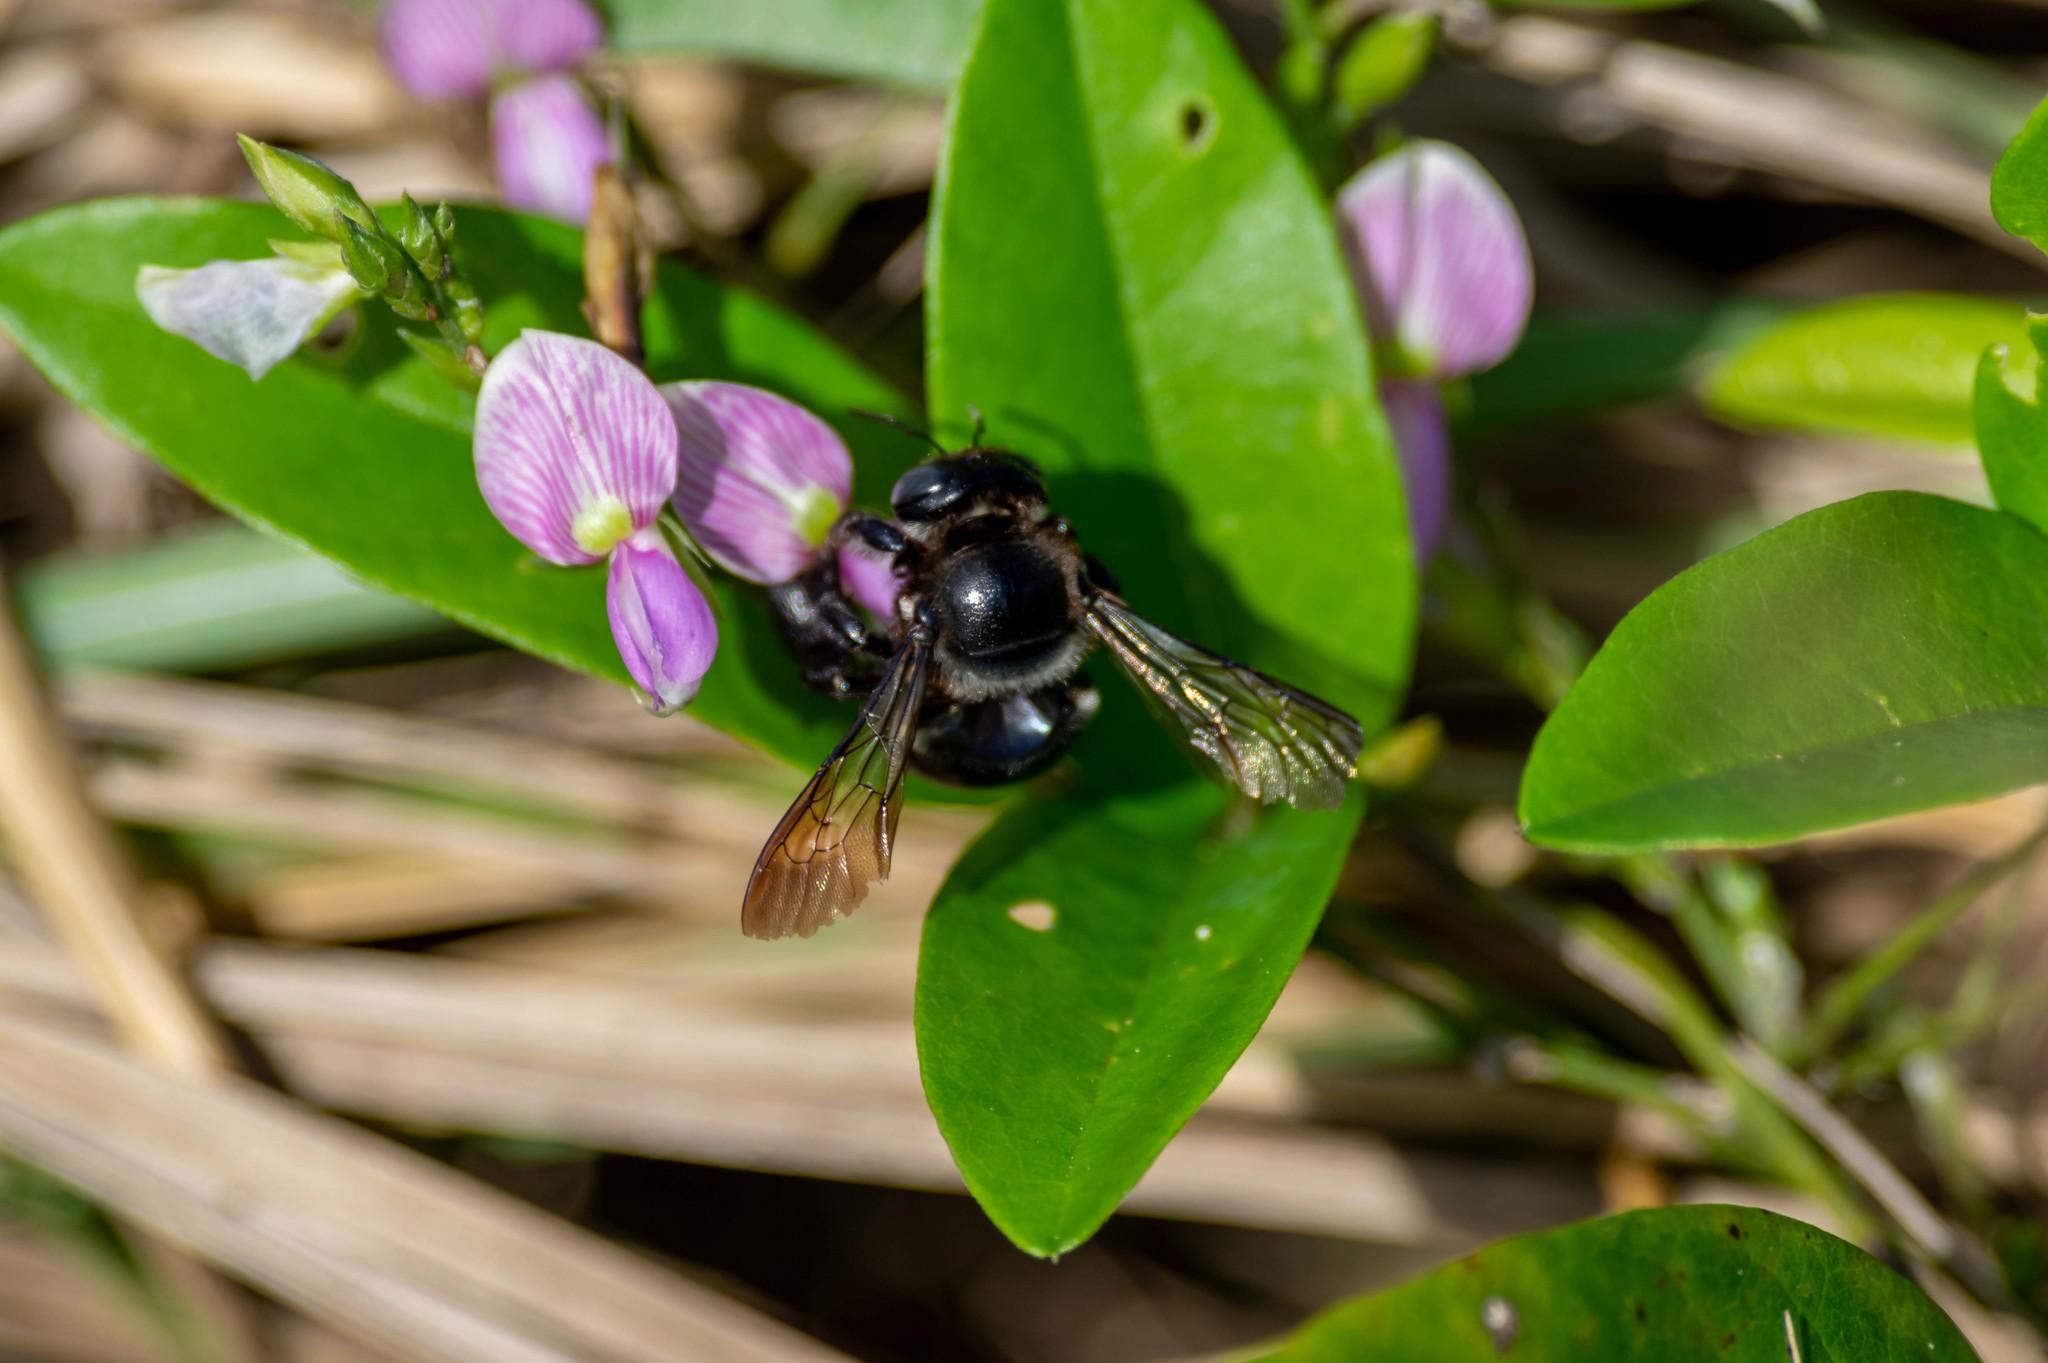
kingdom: Plantae
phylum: Tracheophyta
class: Magnoliopsida
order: Fabales
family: Fabaceae
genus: Galactia
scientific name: Galactia striata
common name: Florida hammock milkpea
